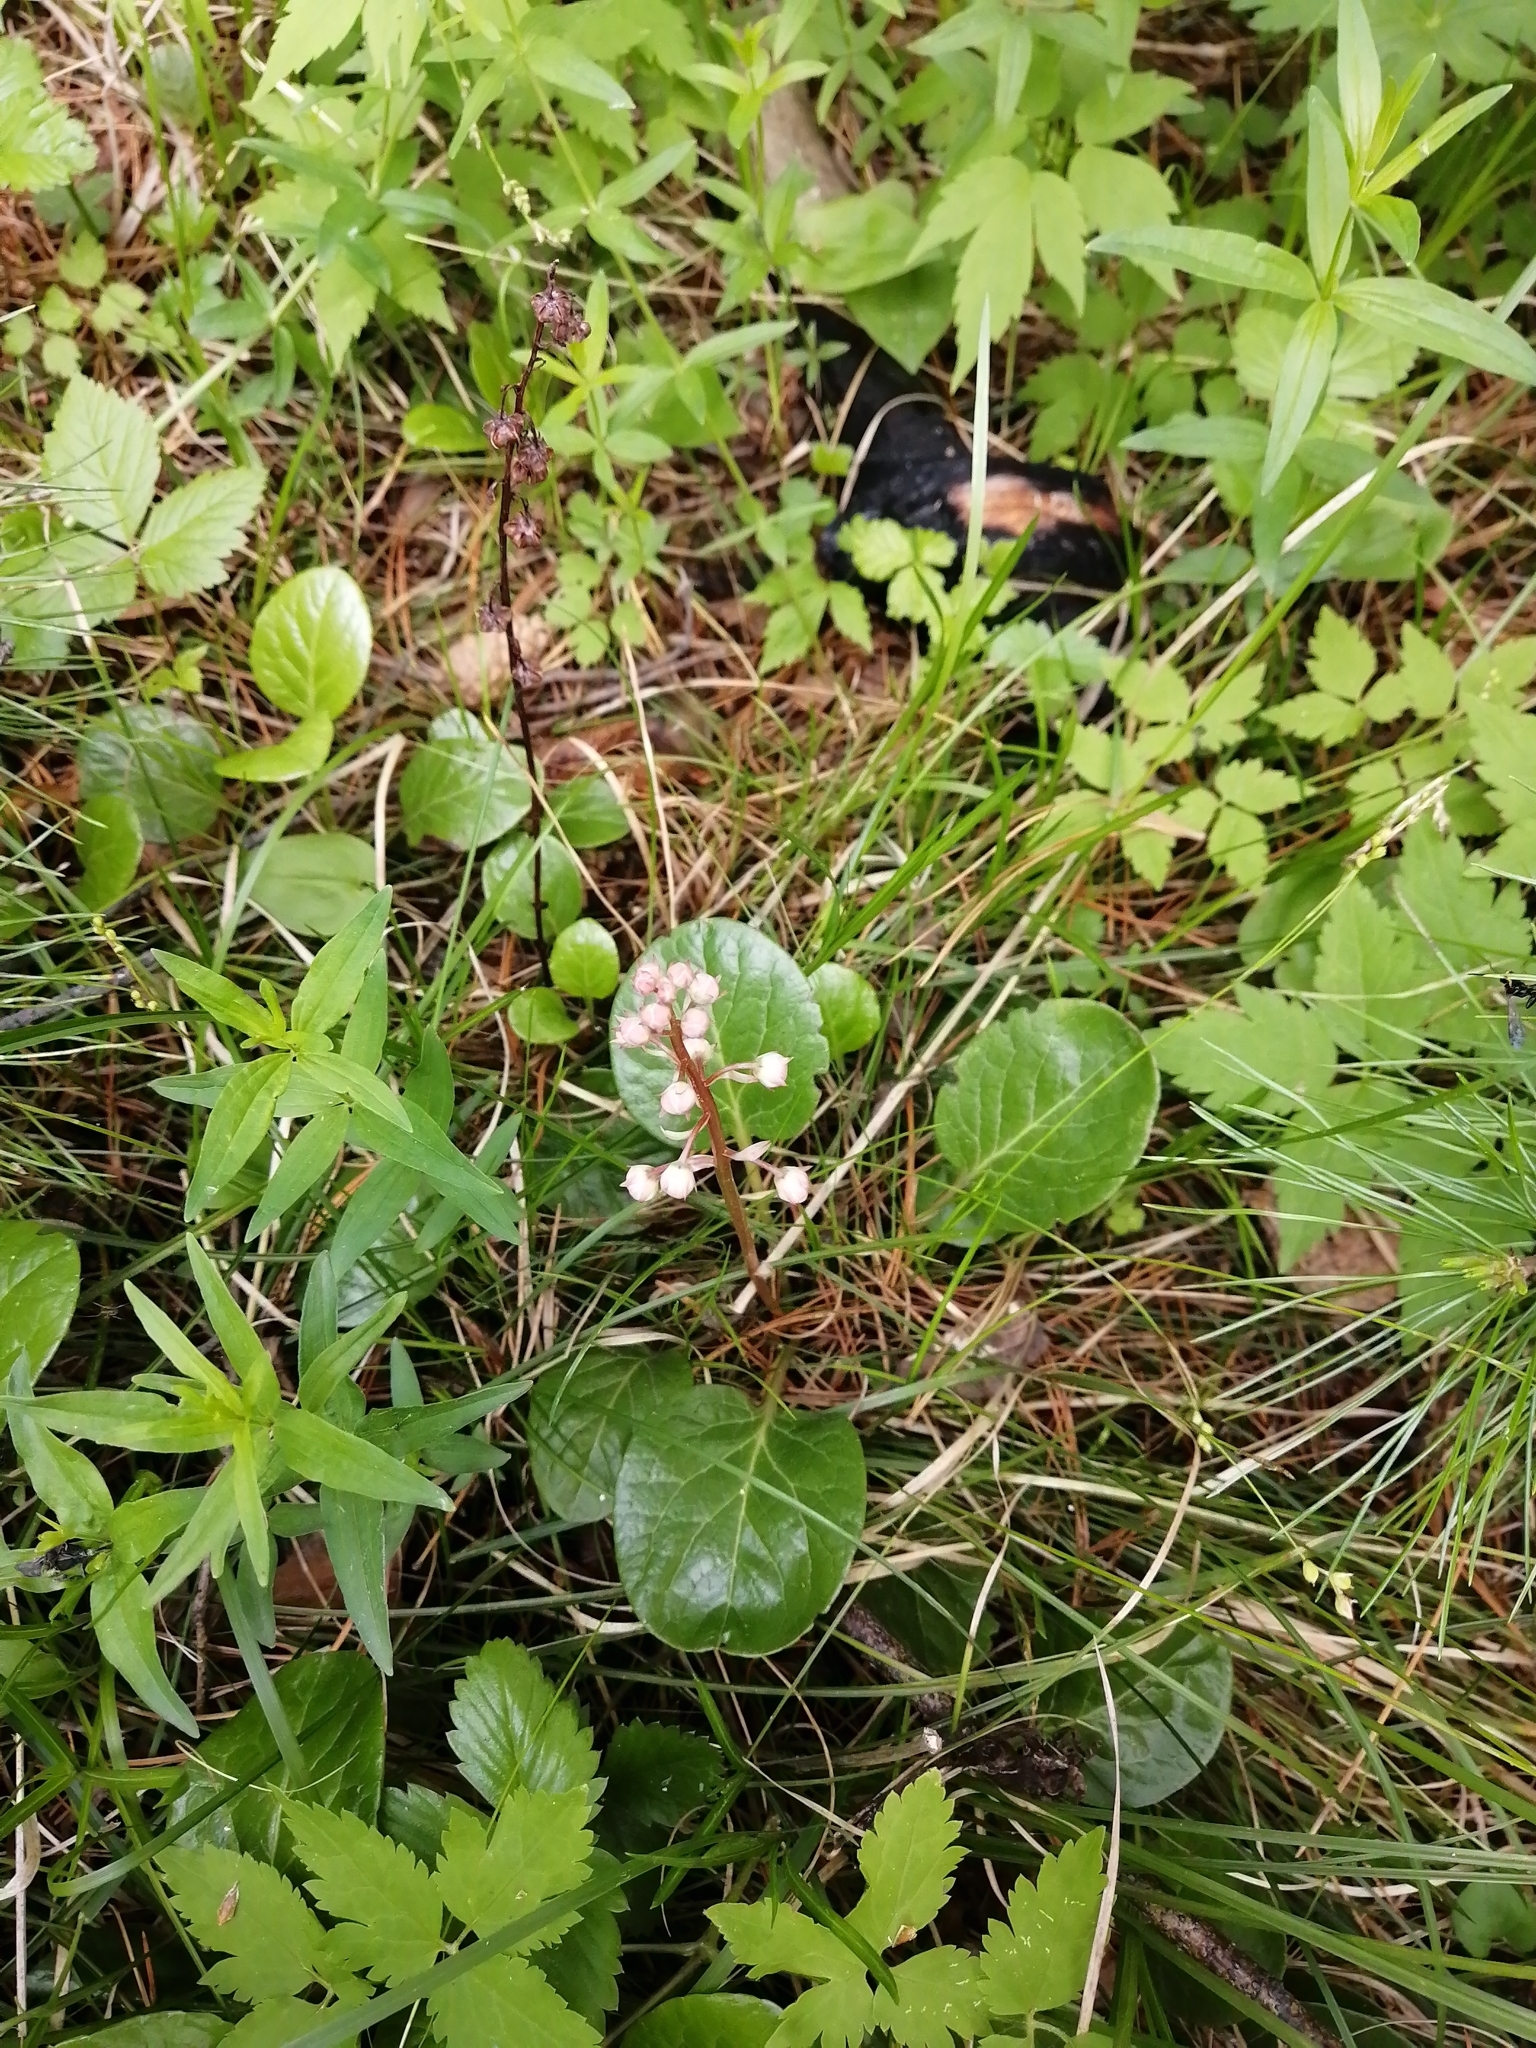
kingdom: Plantae
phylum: Tracheophyta
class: Magnoliopsida
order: Ericales
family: Ericaceae
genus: Pyrola
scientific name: Pyrola rotundifolia
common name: Round-leaved wintergreen
